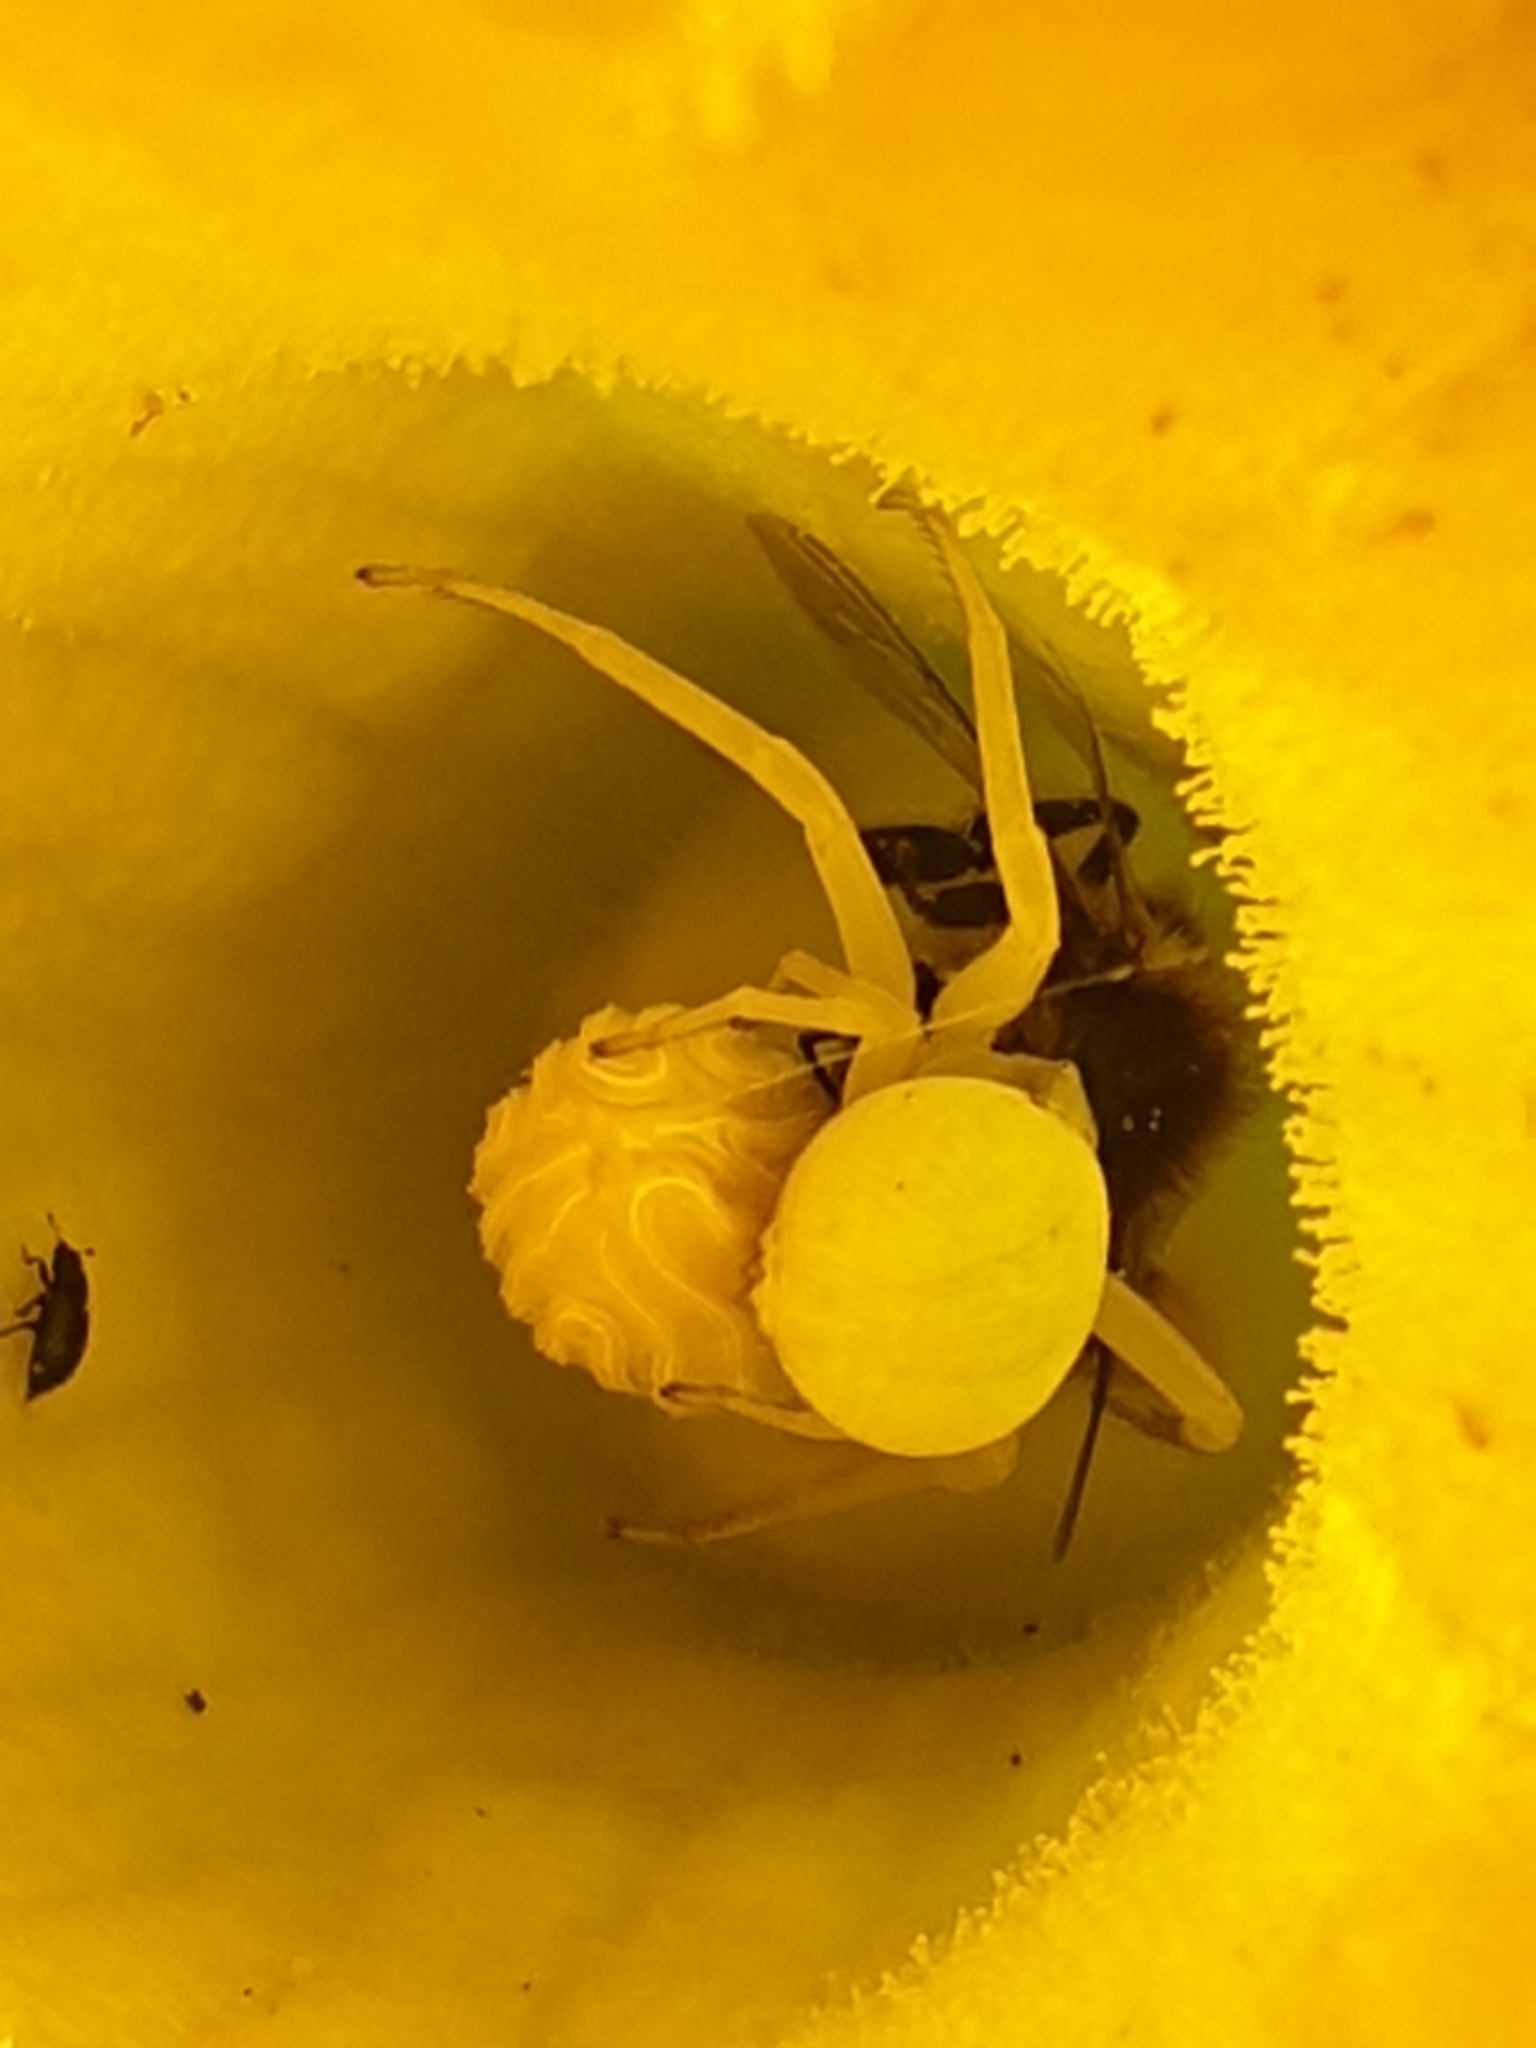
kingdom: Animalia
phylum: Arthropoda
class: Arachnida
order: Araneae
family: Thomisidae
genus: Misumena
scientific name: Misumena vatia
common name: Goldenrod crab spider
